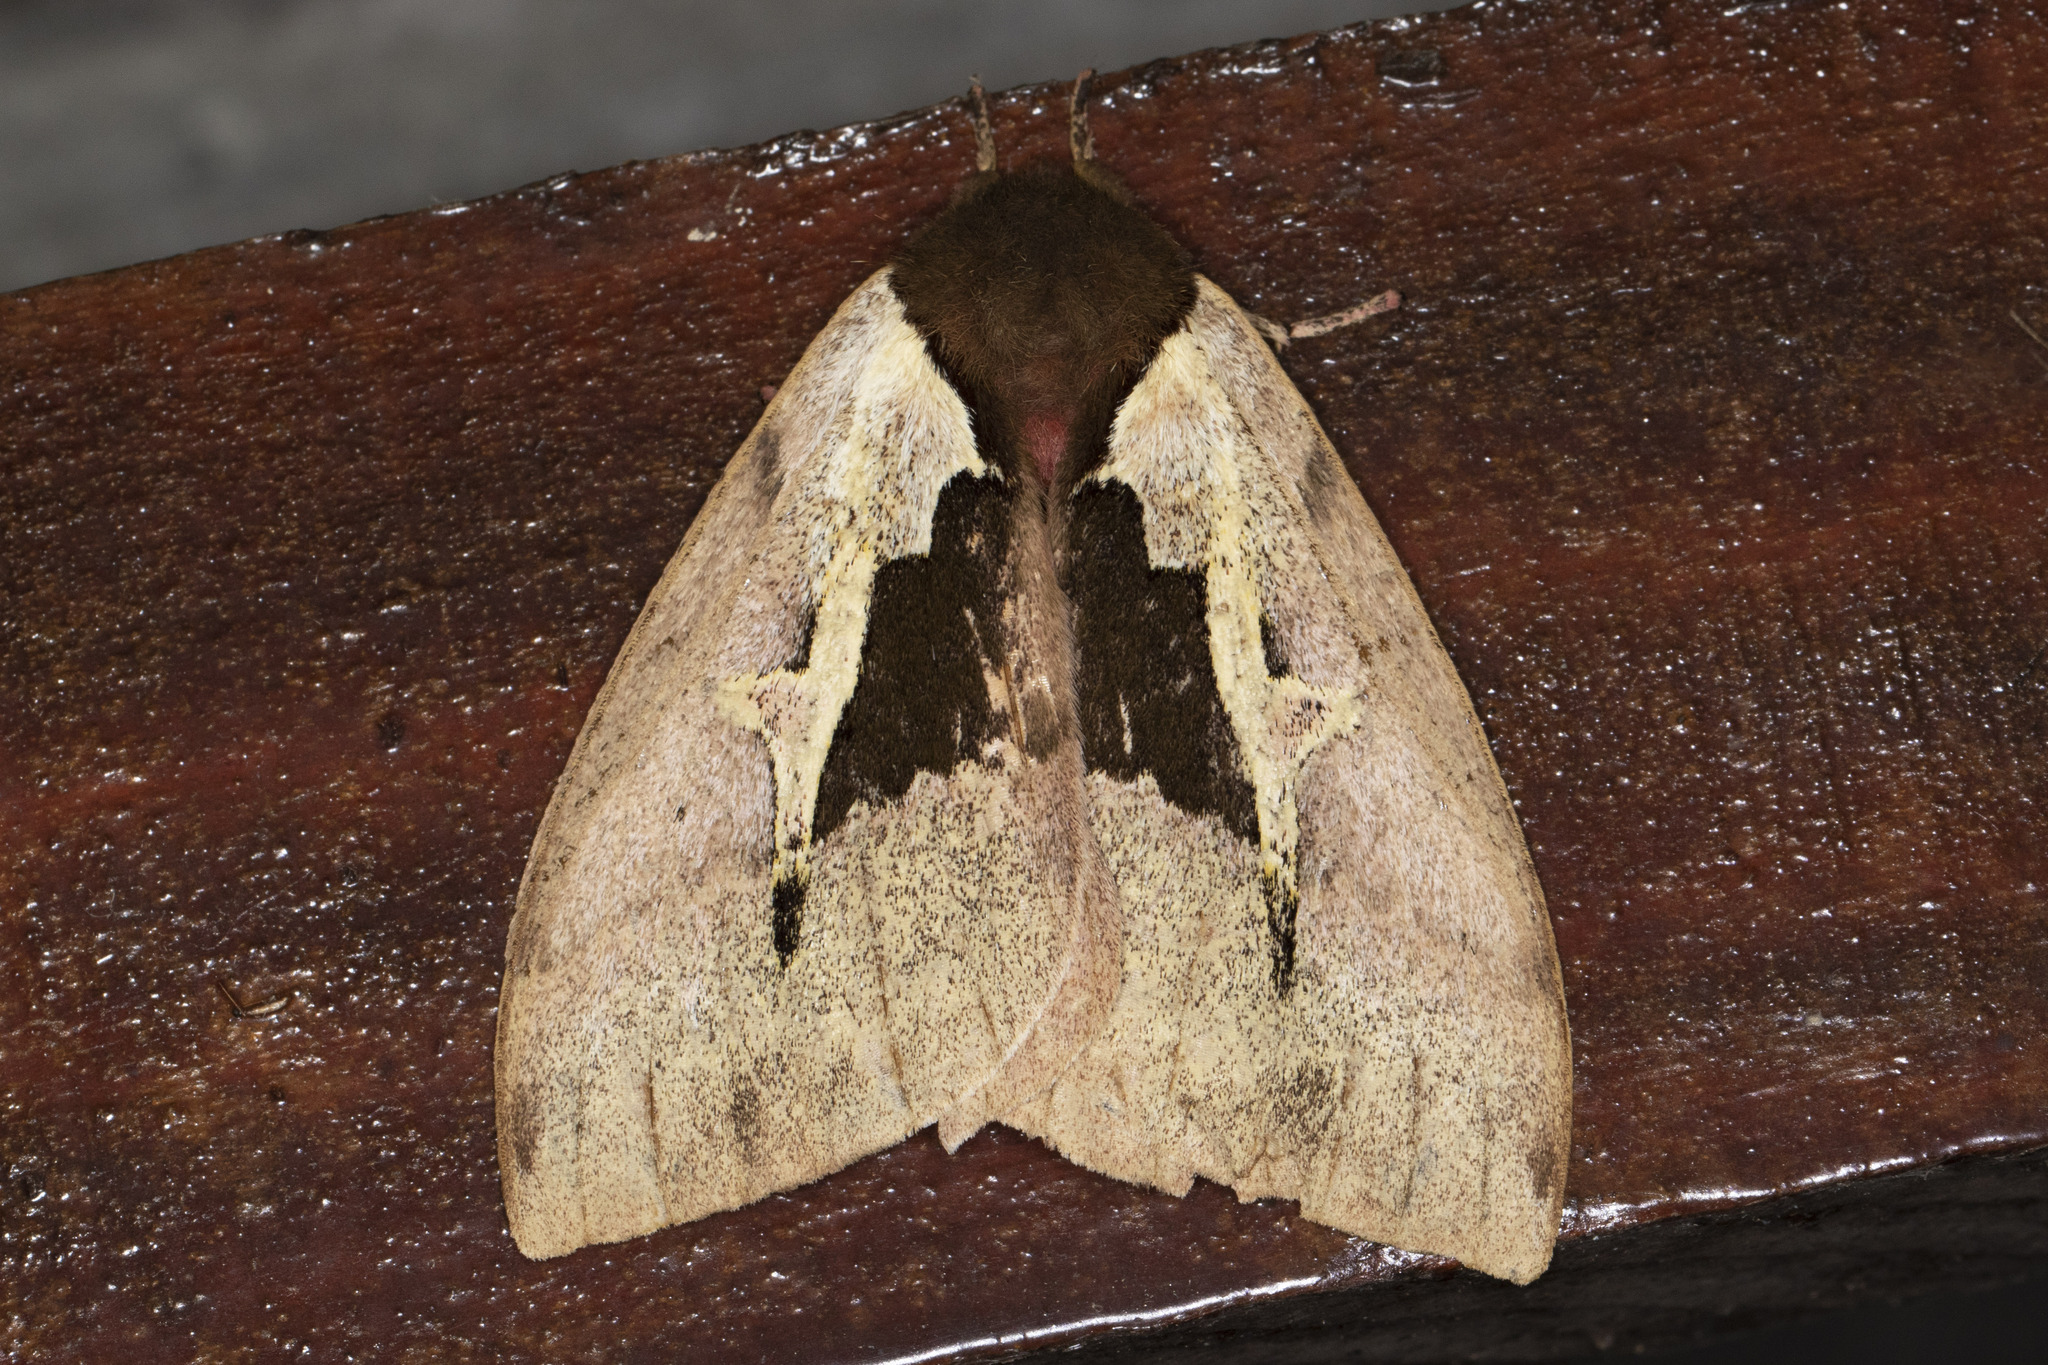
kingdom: Animalia
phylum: Arthropoda
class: Insecta
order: Lepidoptera
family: Saturniidae
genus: Dirphiopsis
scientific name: Dirphiopsis multicolor
